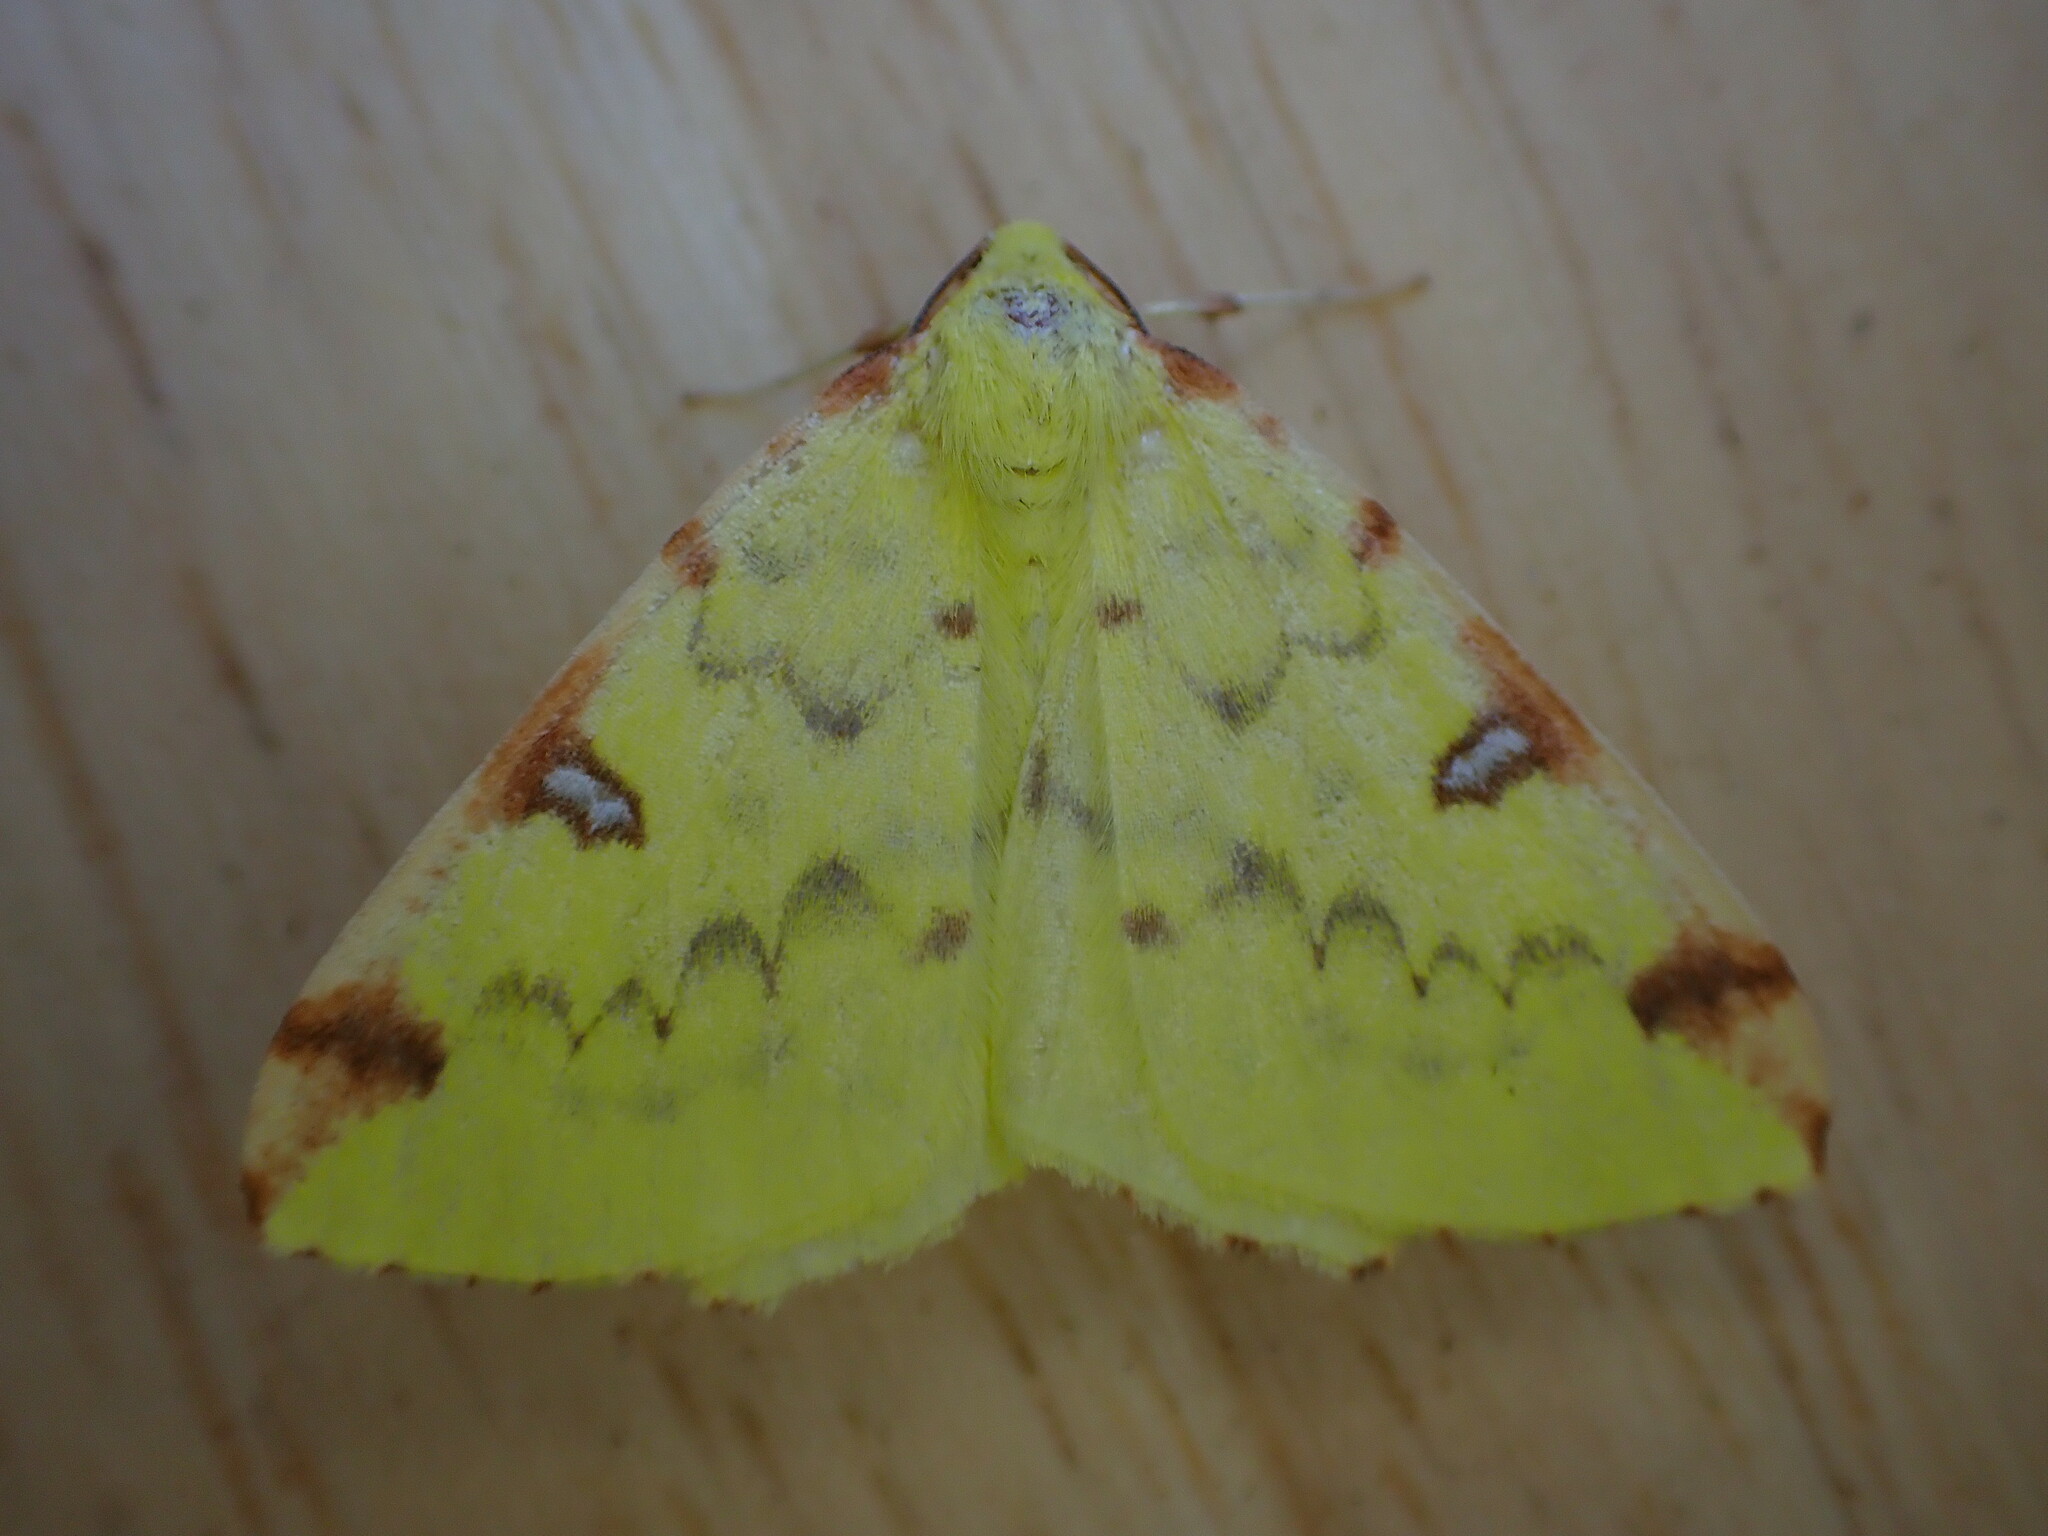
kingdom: Animalia
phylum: Arthropoda
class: Insecta
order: Lepidoptera
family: Geometridae
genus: Opisthograptis
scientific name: Opisthograptis luteolata
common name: Brimstone moth
